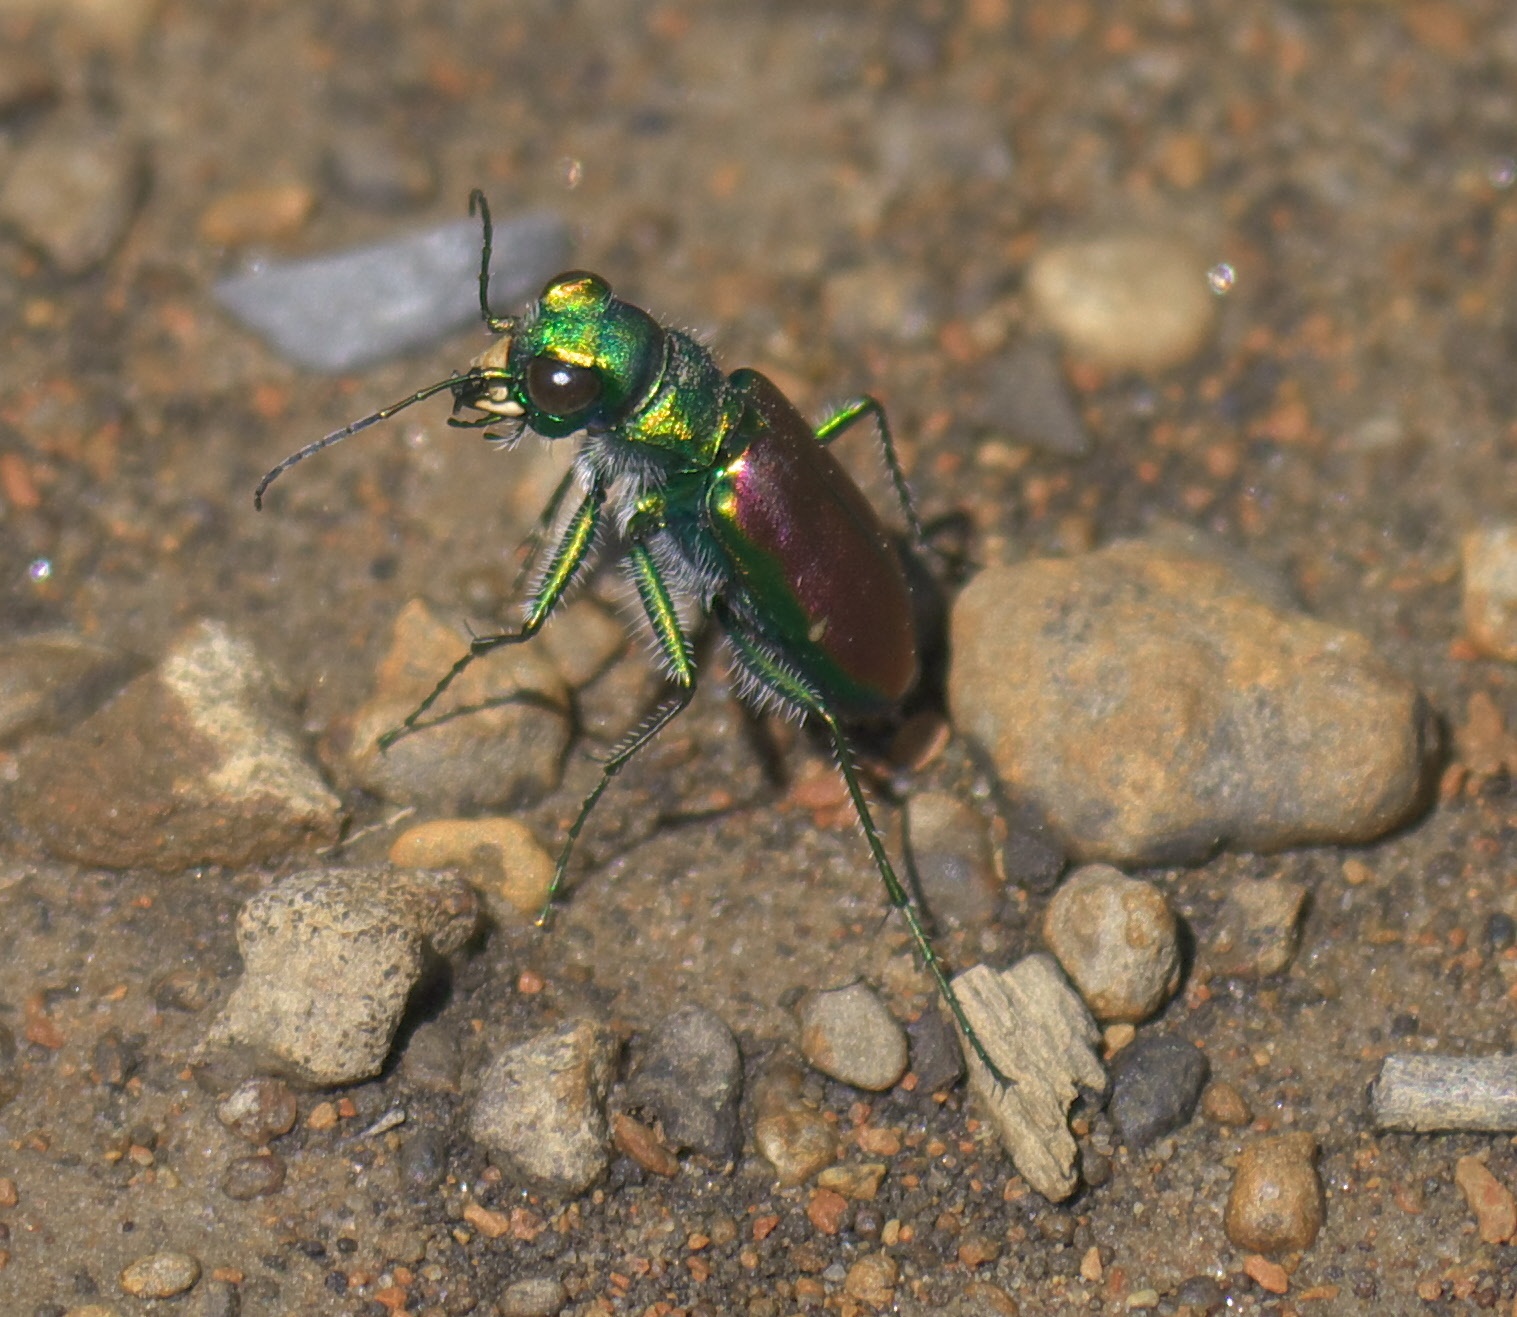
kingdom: Animalia
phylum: Arthropoda
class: Insecta
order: Coleoptera
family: Carabidae
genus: Cicindela
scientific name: Cicindela splendida
